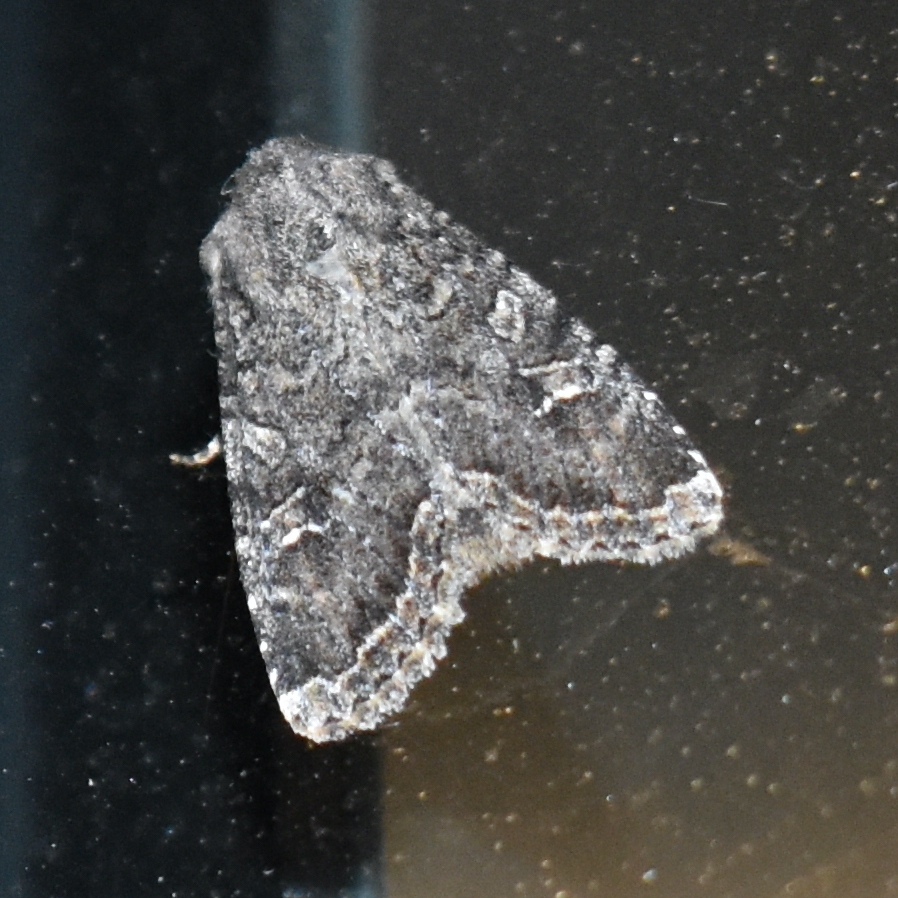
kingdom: Animalia
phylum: Arthropoda
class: Insecta
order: Lepidoptera
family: Noctuidae
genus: Apamea
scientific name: Apamea devastator
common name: Glassy cutworm
